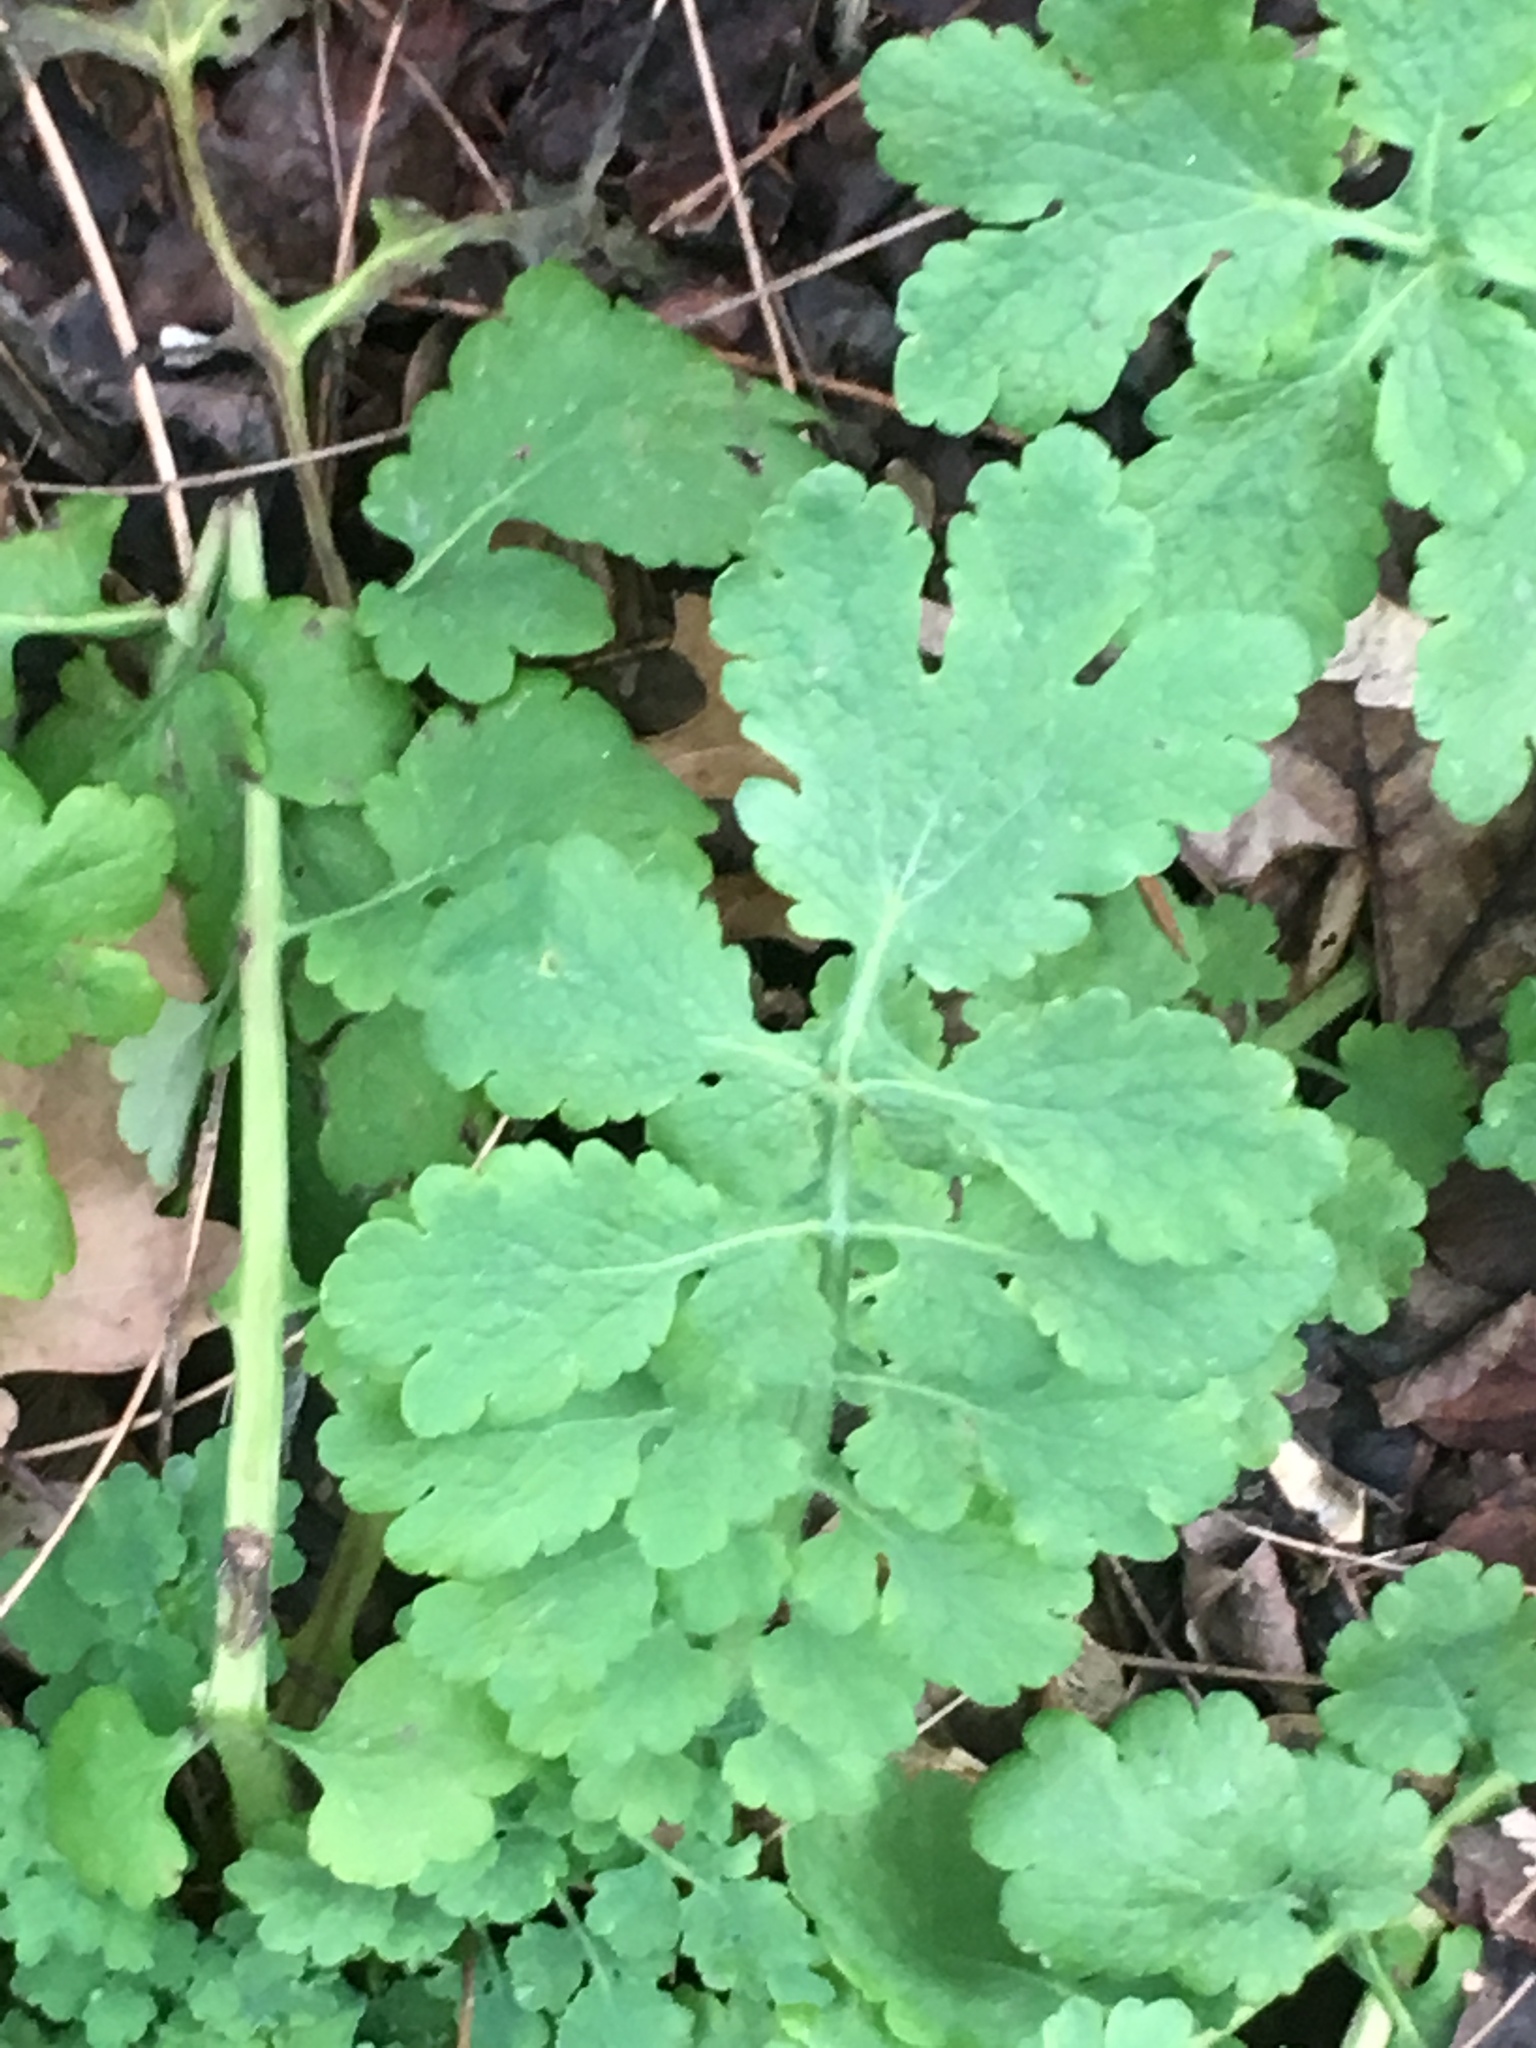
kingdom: Plantae
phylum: Tracheophyta
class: Magnoliopsida
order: Ranunculales
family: Papaveraceae
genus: Chelidonium
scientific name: Chelidonium majus
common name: Greater celandine
